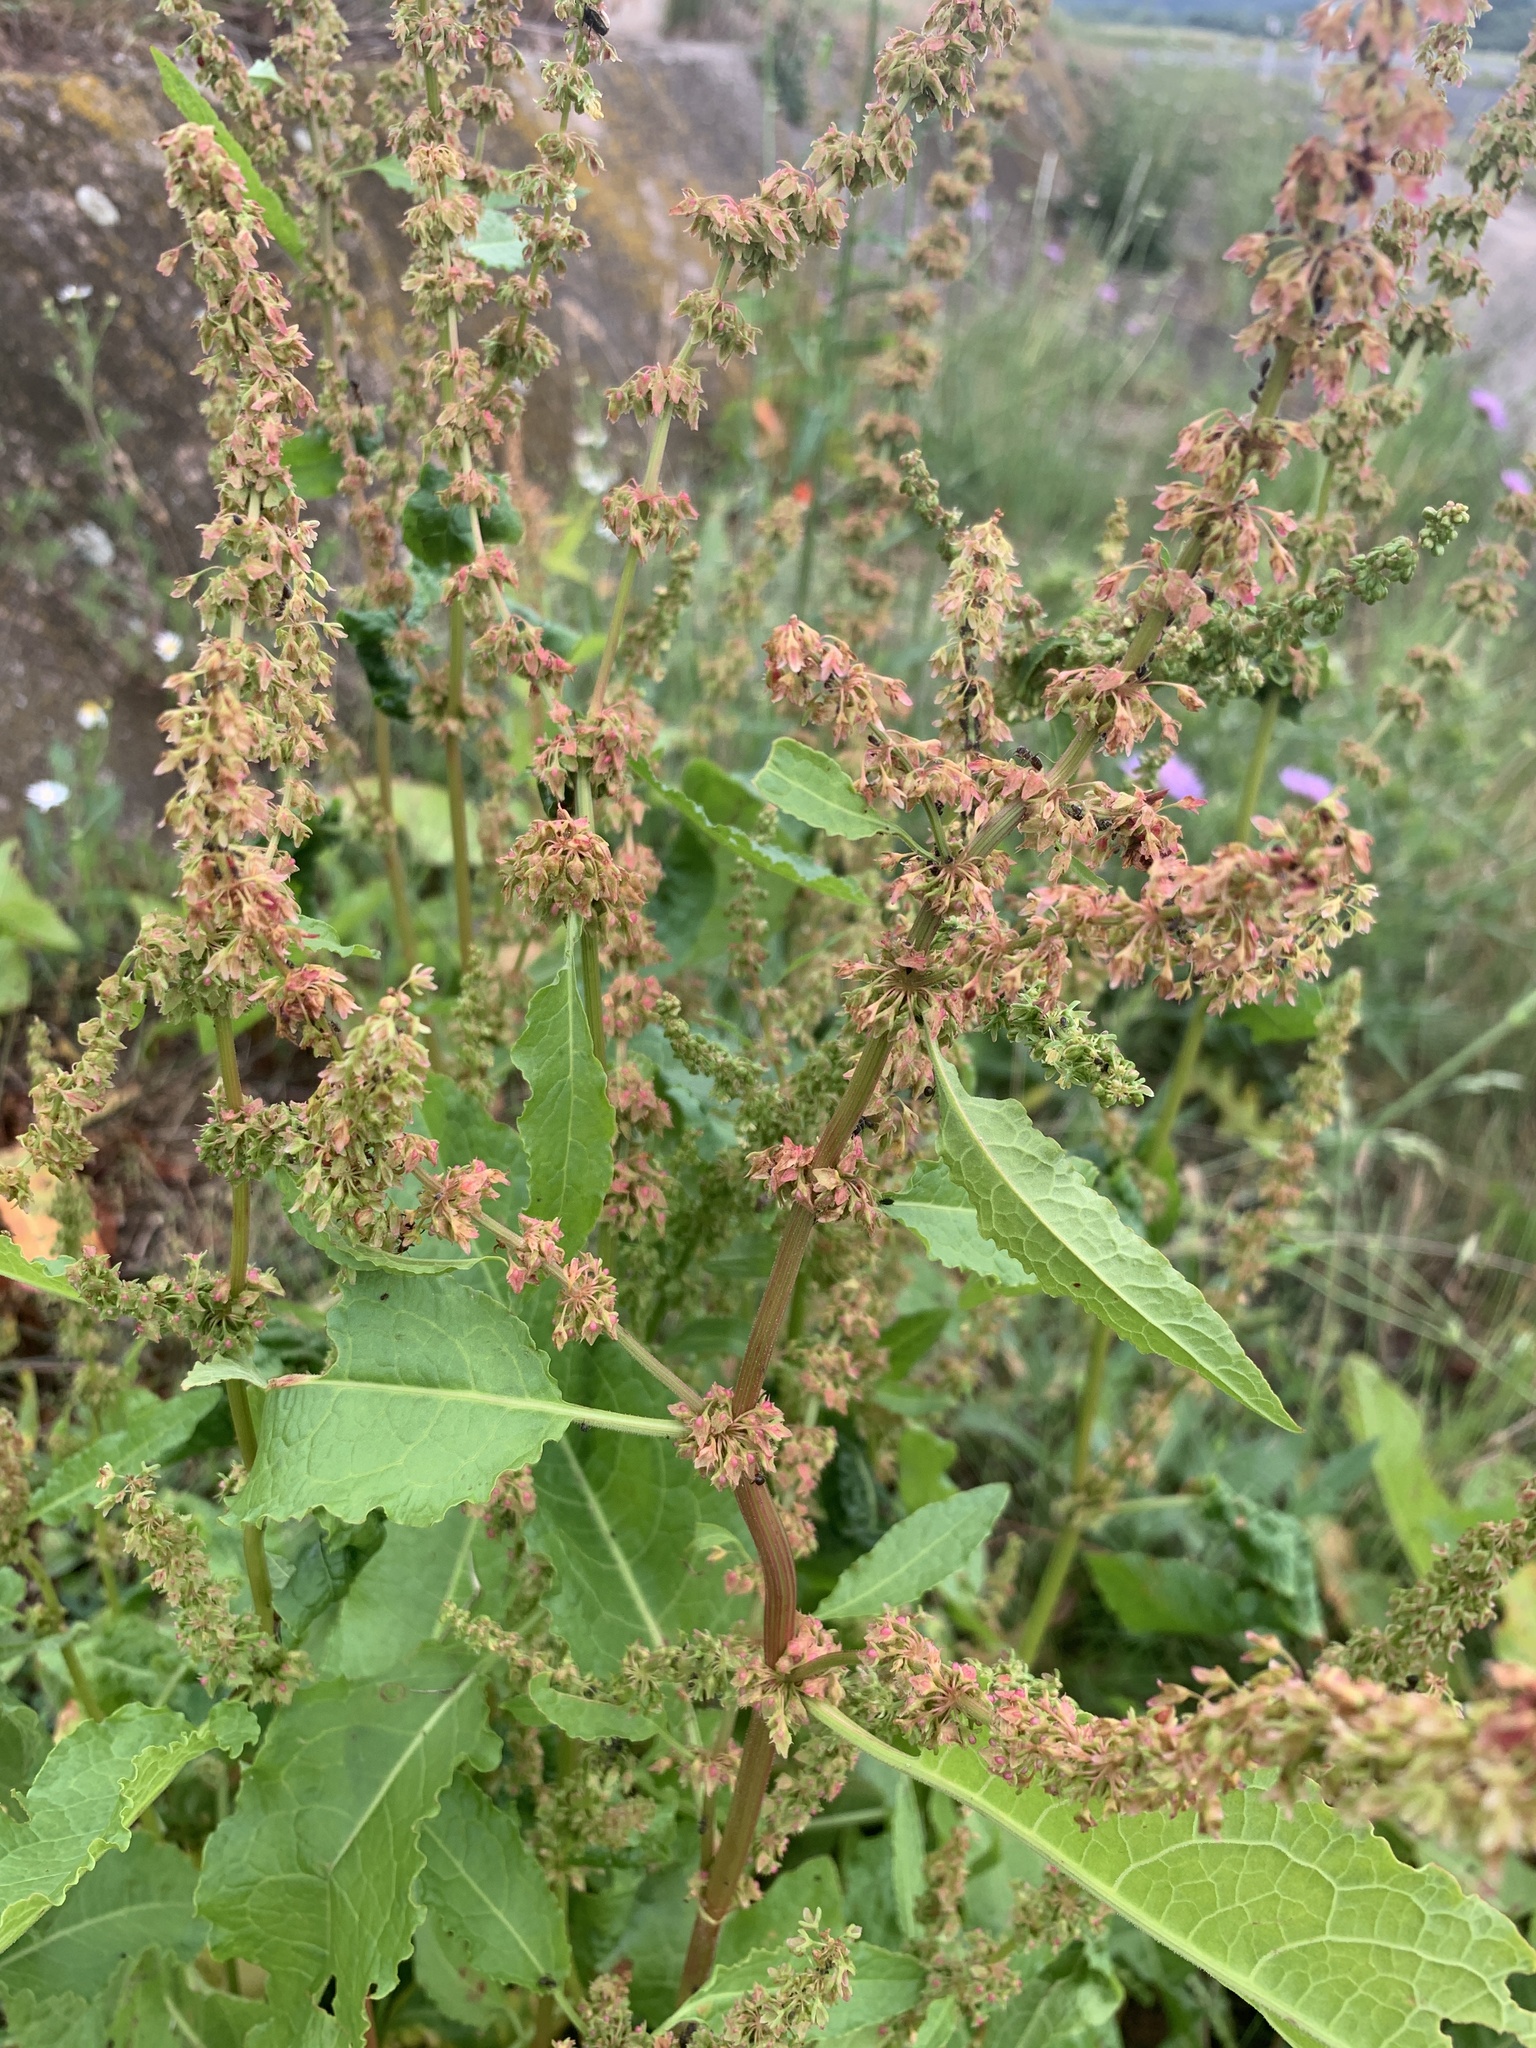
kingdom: Plantae
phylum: Tracheophyta
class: Magnoliopsida
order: Caryophyllales
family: Polygonaceae
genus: Rumex
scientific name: Rumex obtusifolius
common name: Bitter dock
